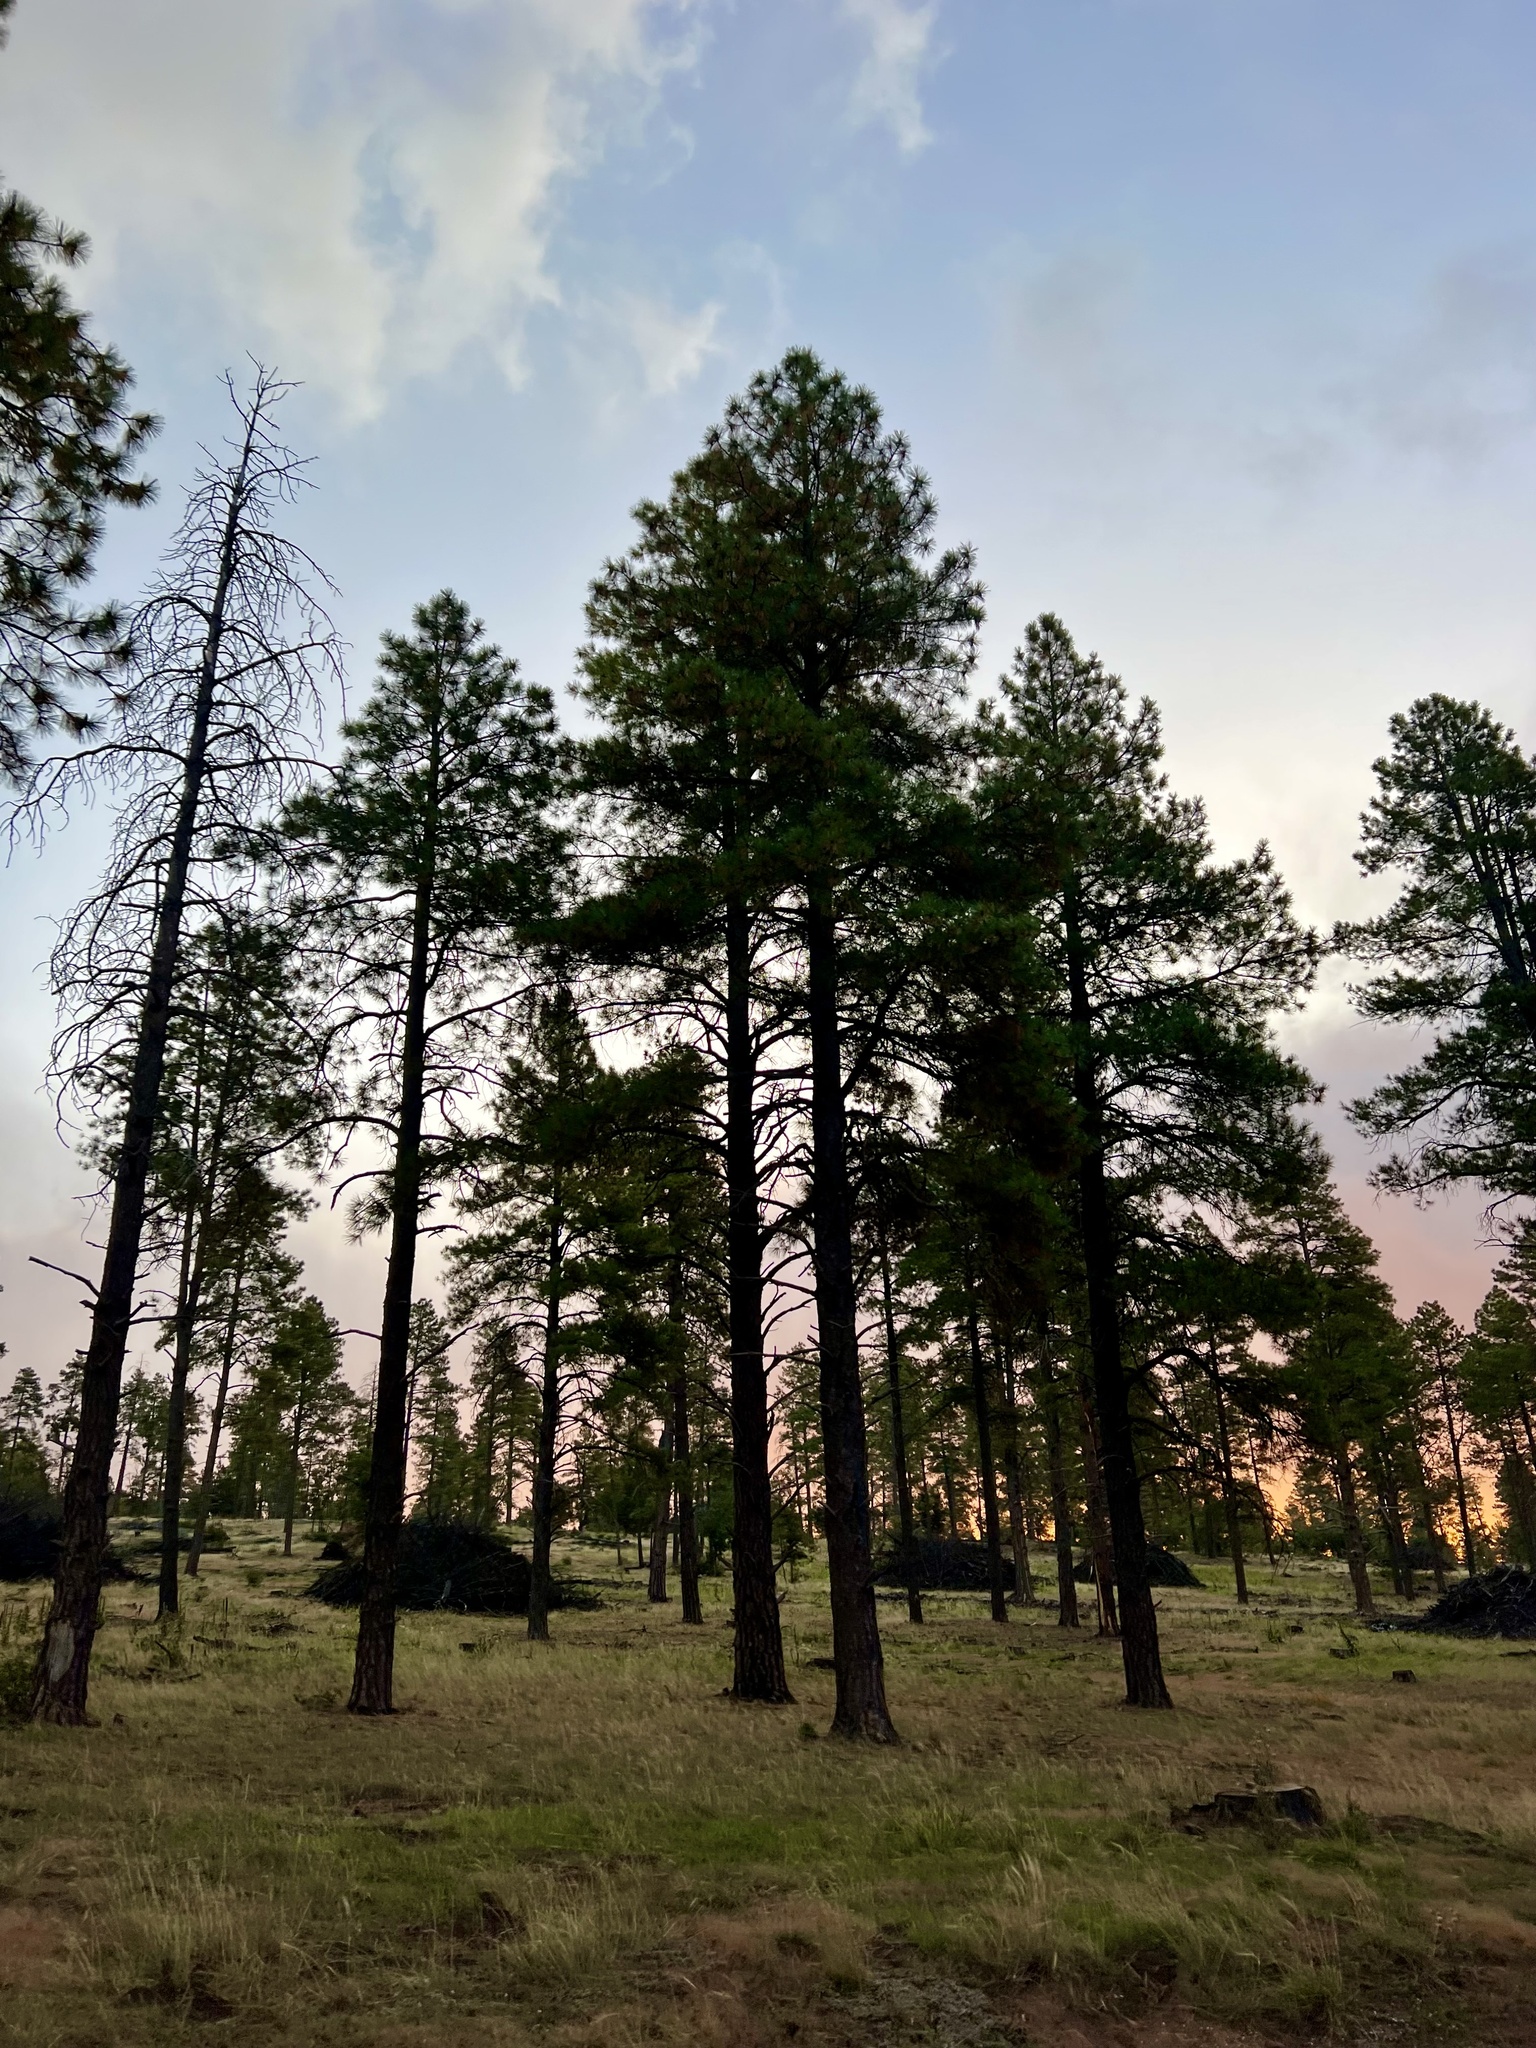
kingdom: Plantae
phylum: Tracheophyta
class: Pinopsida
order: Pinales
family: Pinaceae
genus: Pinus
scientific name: Pinus ponderosa
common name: Western yellow-pine
